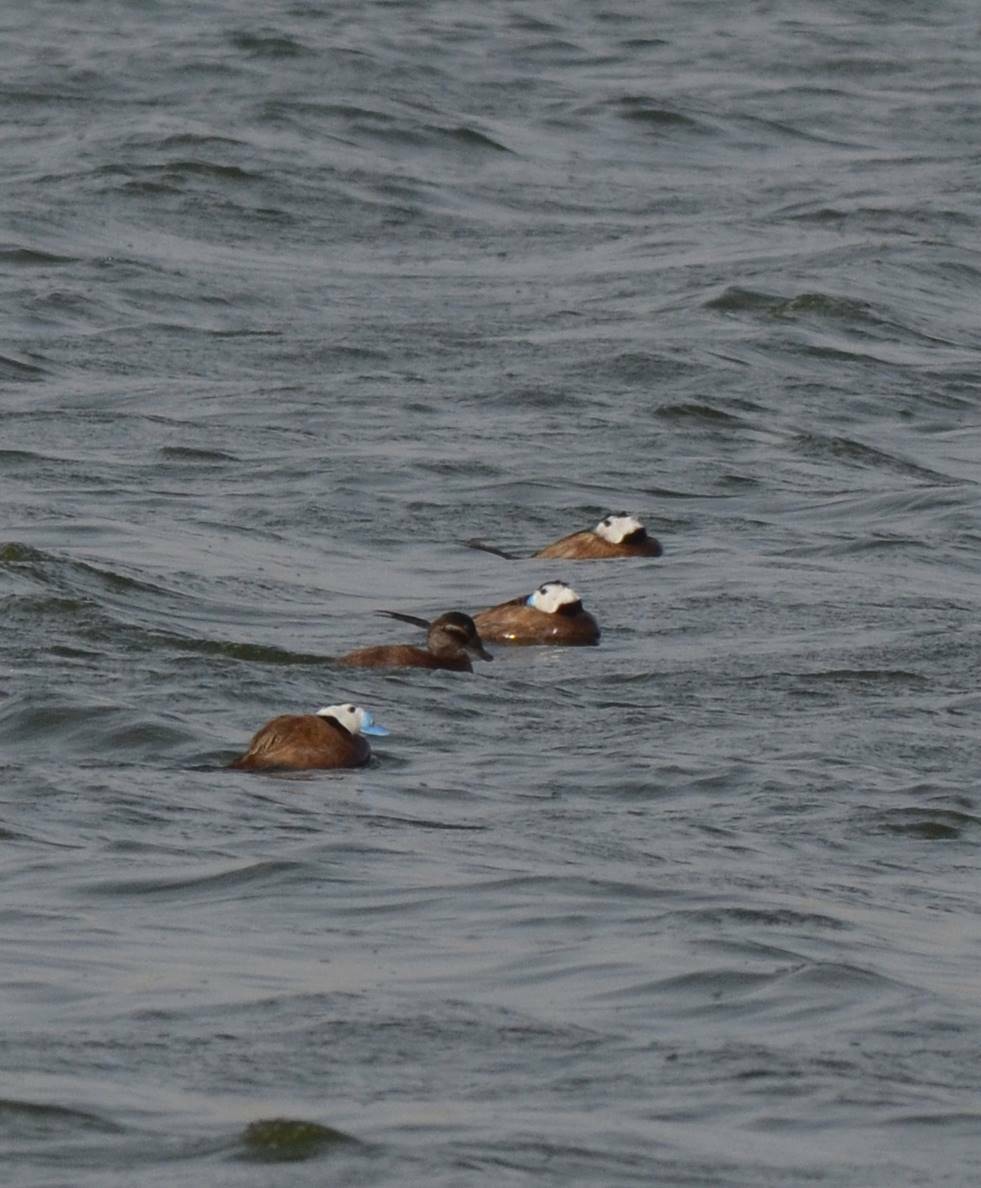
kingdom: Animalia
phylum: Chordata
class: Aves
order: Anseriformes
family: Anatidae
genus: Oxyura
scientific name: Oxyura leucocephala
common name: White-headed duck
